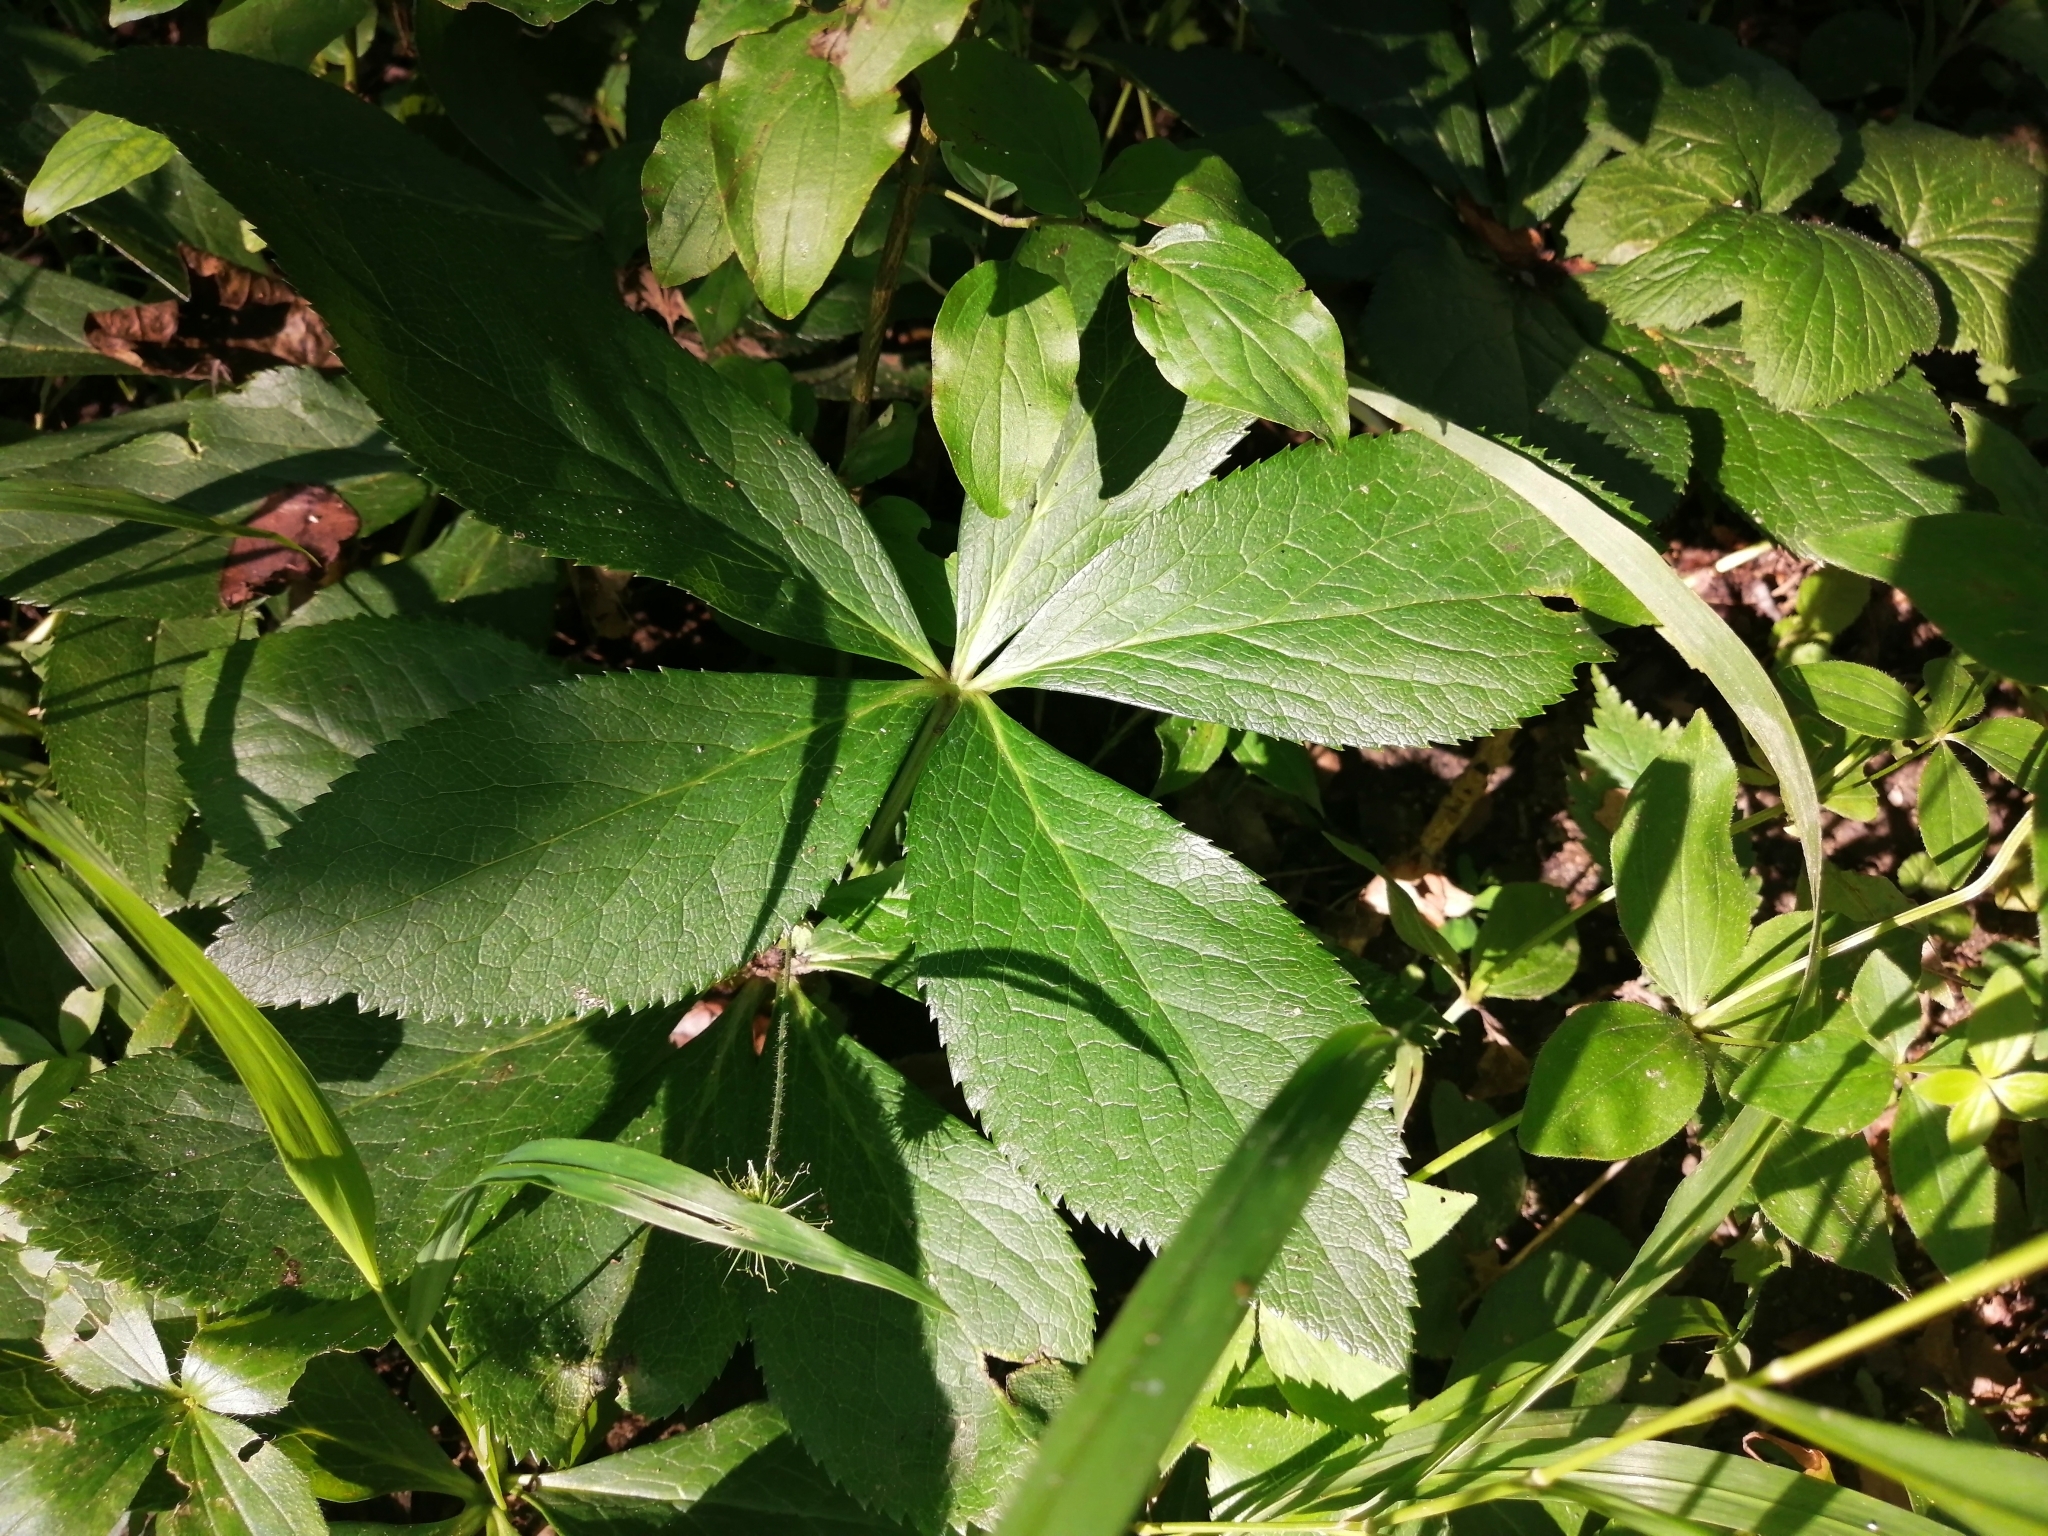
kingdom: Plantae
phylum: Tracheophyta
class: Magnoliopsida
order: Ranunculales
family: Ranunculaceae
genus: Helleborus
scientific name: Helleborus orientalis
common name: Lenten-rose
